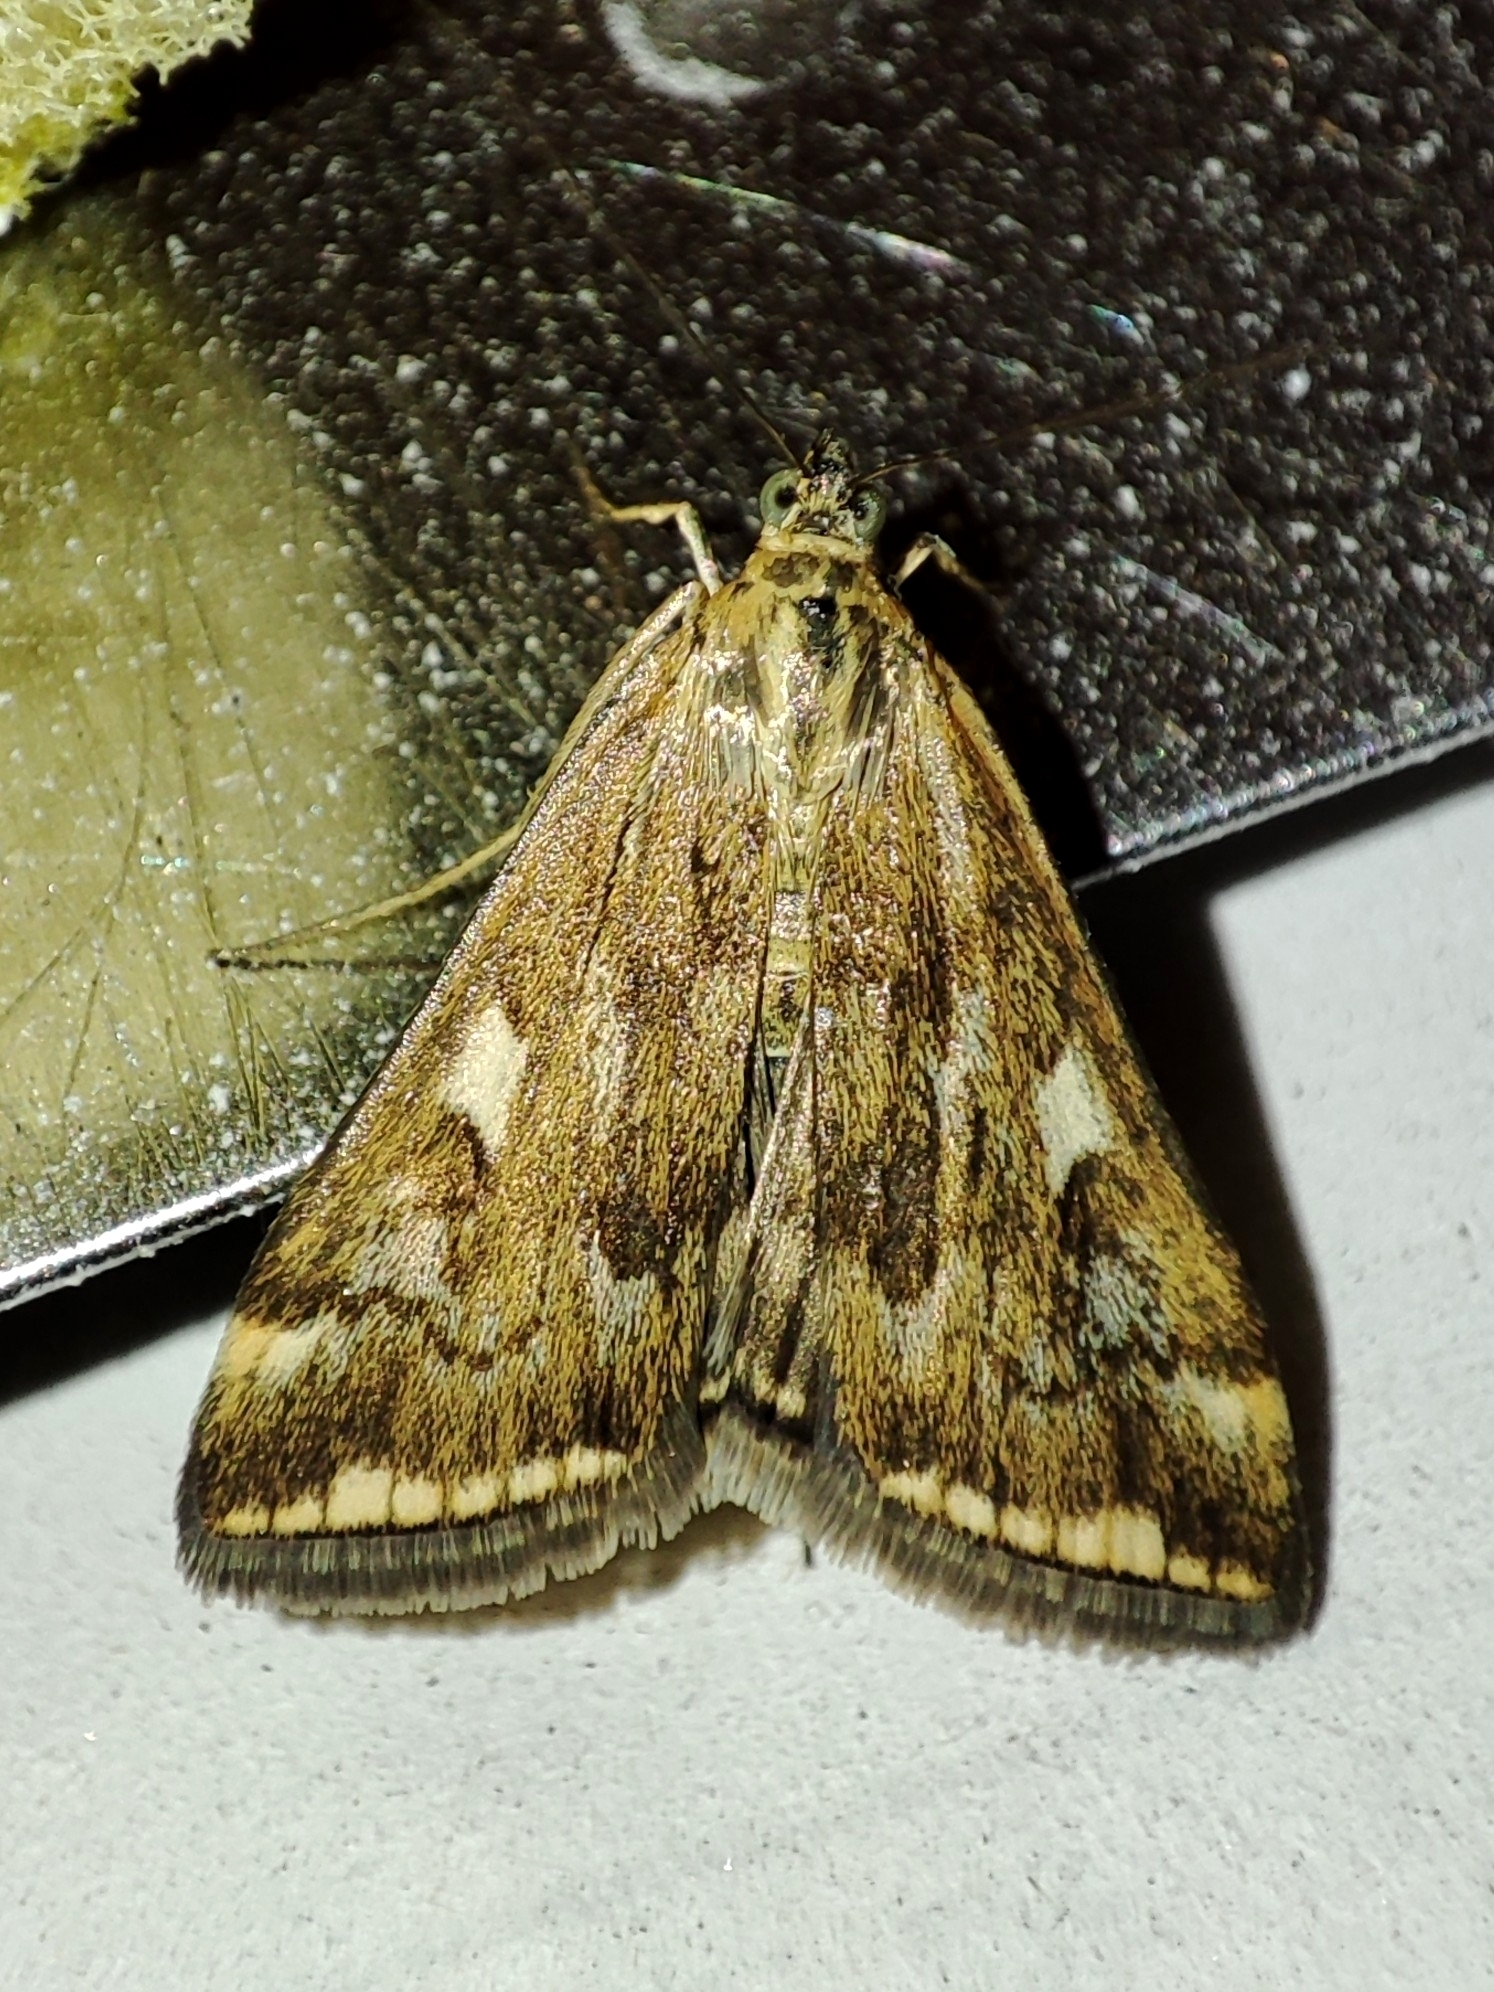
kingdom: Animalia
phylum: Arthropoda
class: Insecta
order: Lepidoptera
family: Crambidae
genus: Loxostege
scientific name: Loxostege sticticalis
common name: Crambid moth
